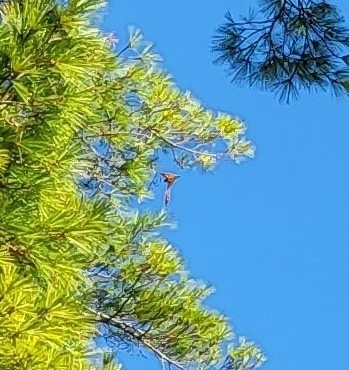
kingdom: Animalia
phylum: Arthropoda
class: Insecta
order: Lepidoptera
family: Nymphalidae
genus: Danaus
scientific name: Danaus plexippus
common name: Monarch
